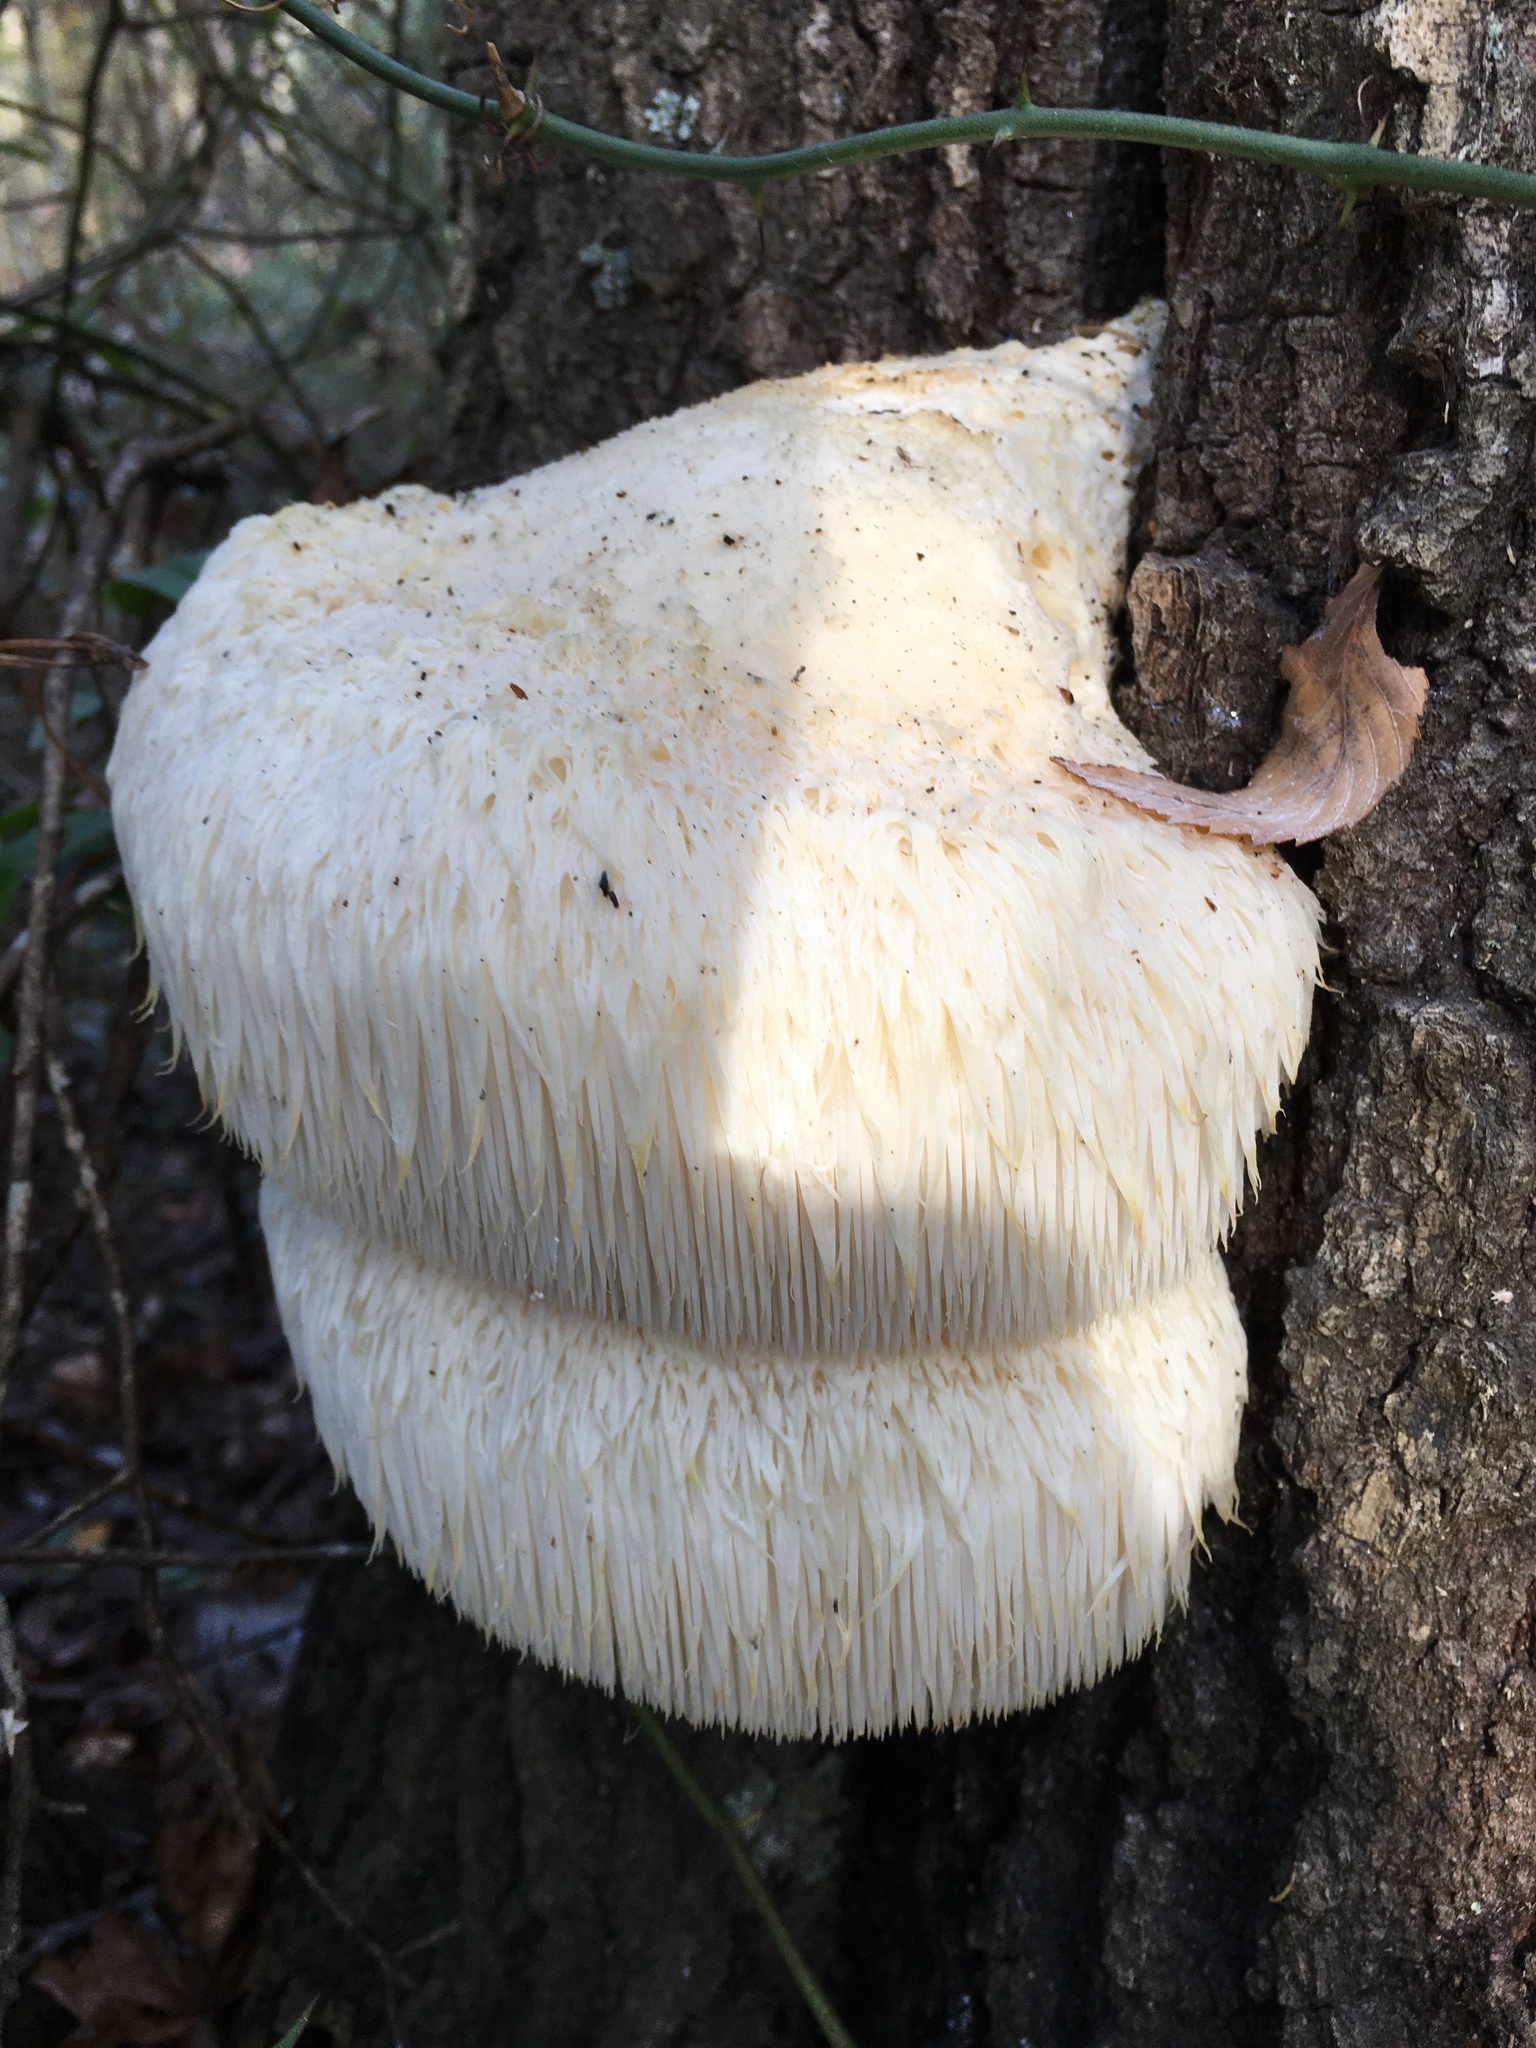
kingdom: Fungi
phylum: Basidiomycota
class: Agaricomycetes
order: Russulales
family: Hericiaceae
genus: Hericium
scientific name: Hericium erinaceus
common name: Bearded tooth
